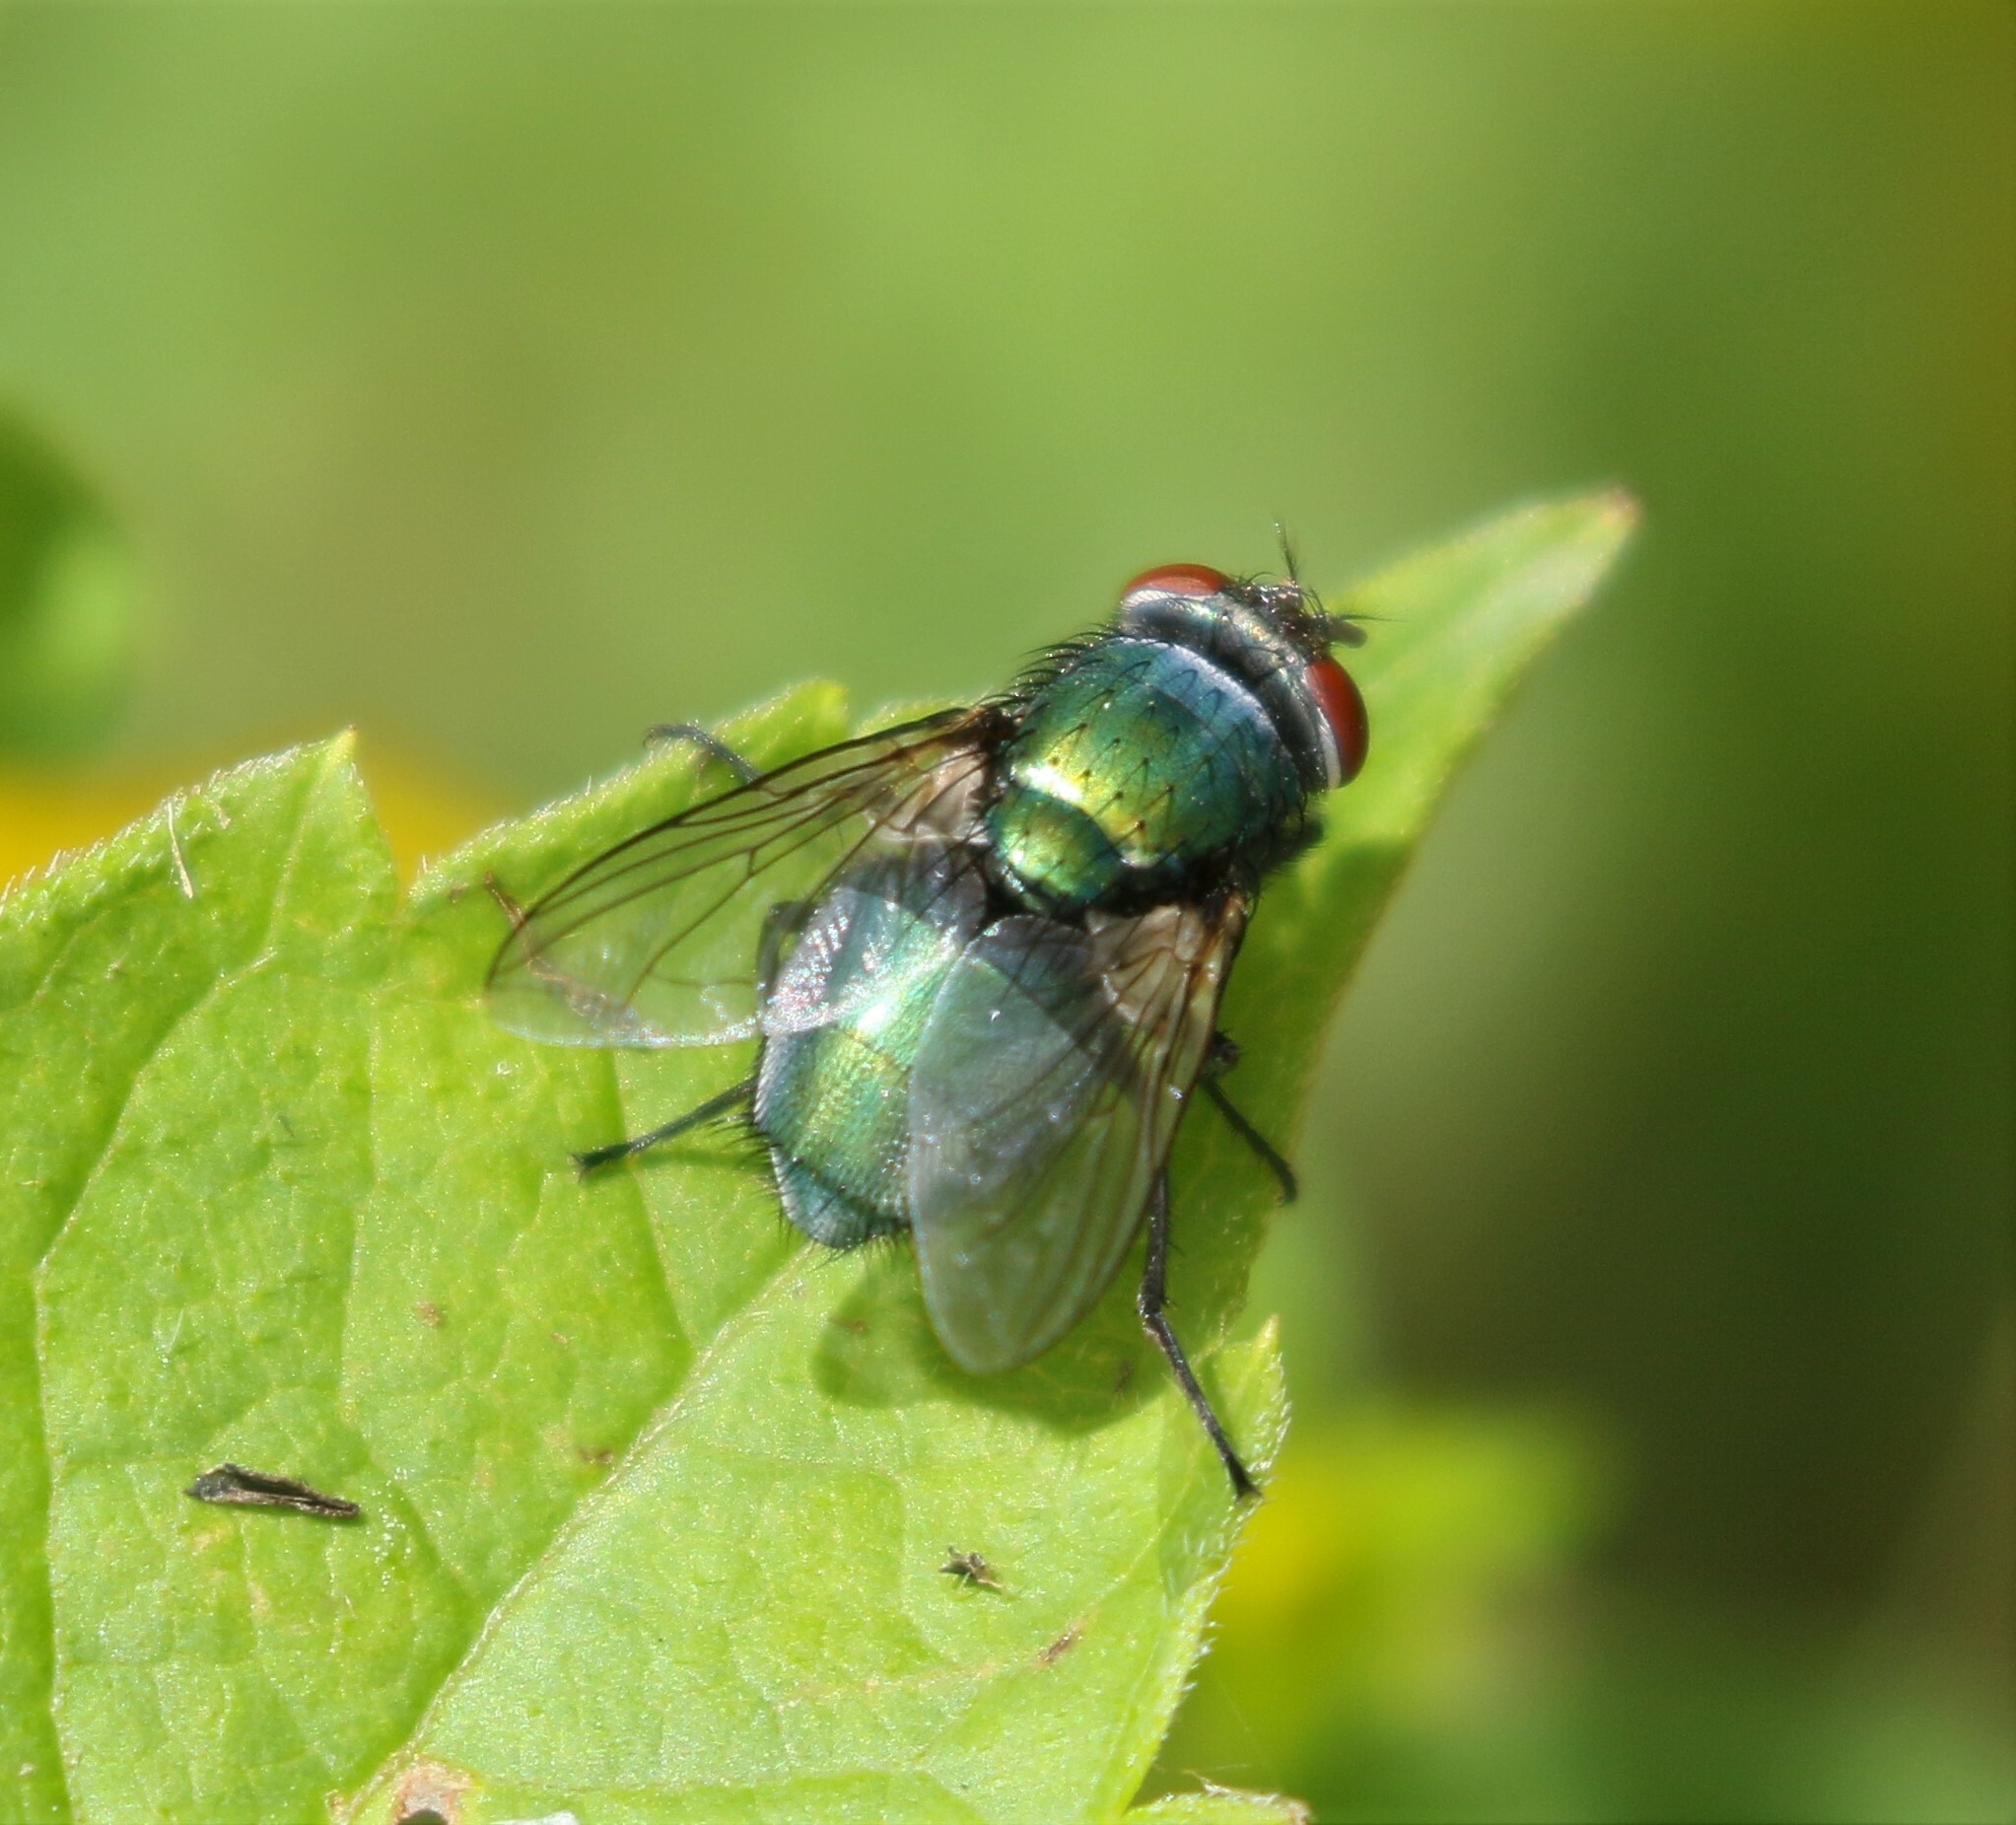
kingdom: Animalia
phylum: Arthropoda
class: Insecta
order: Diptera
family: Calliphoridae
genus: Lucilia
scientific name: Lucilia sericata
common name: Blow fly
